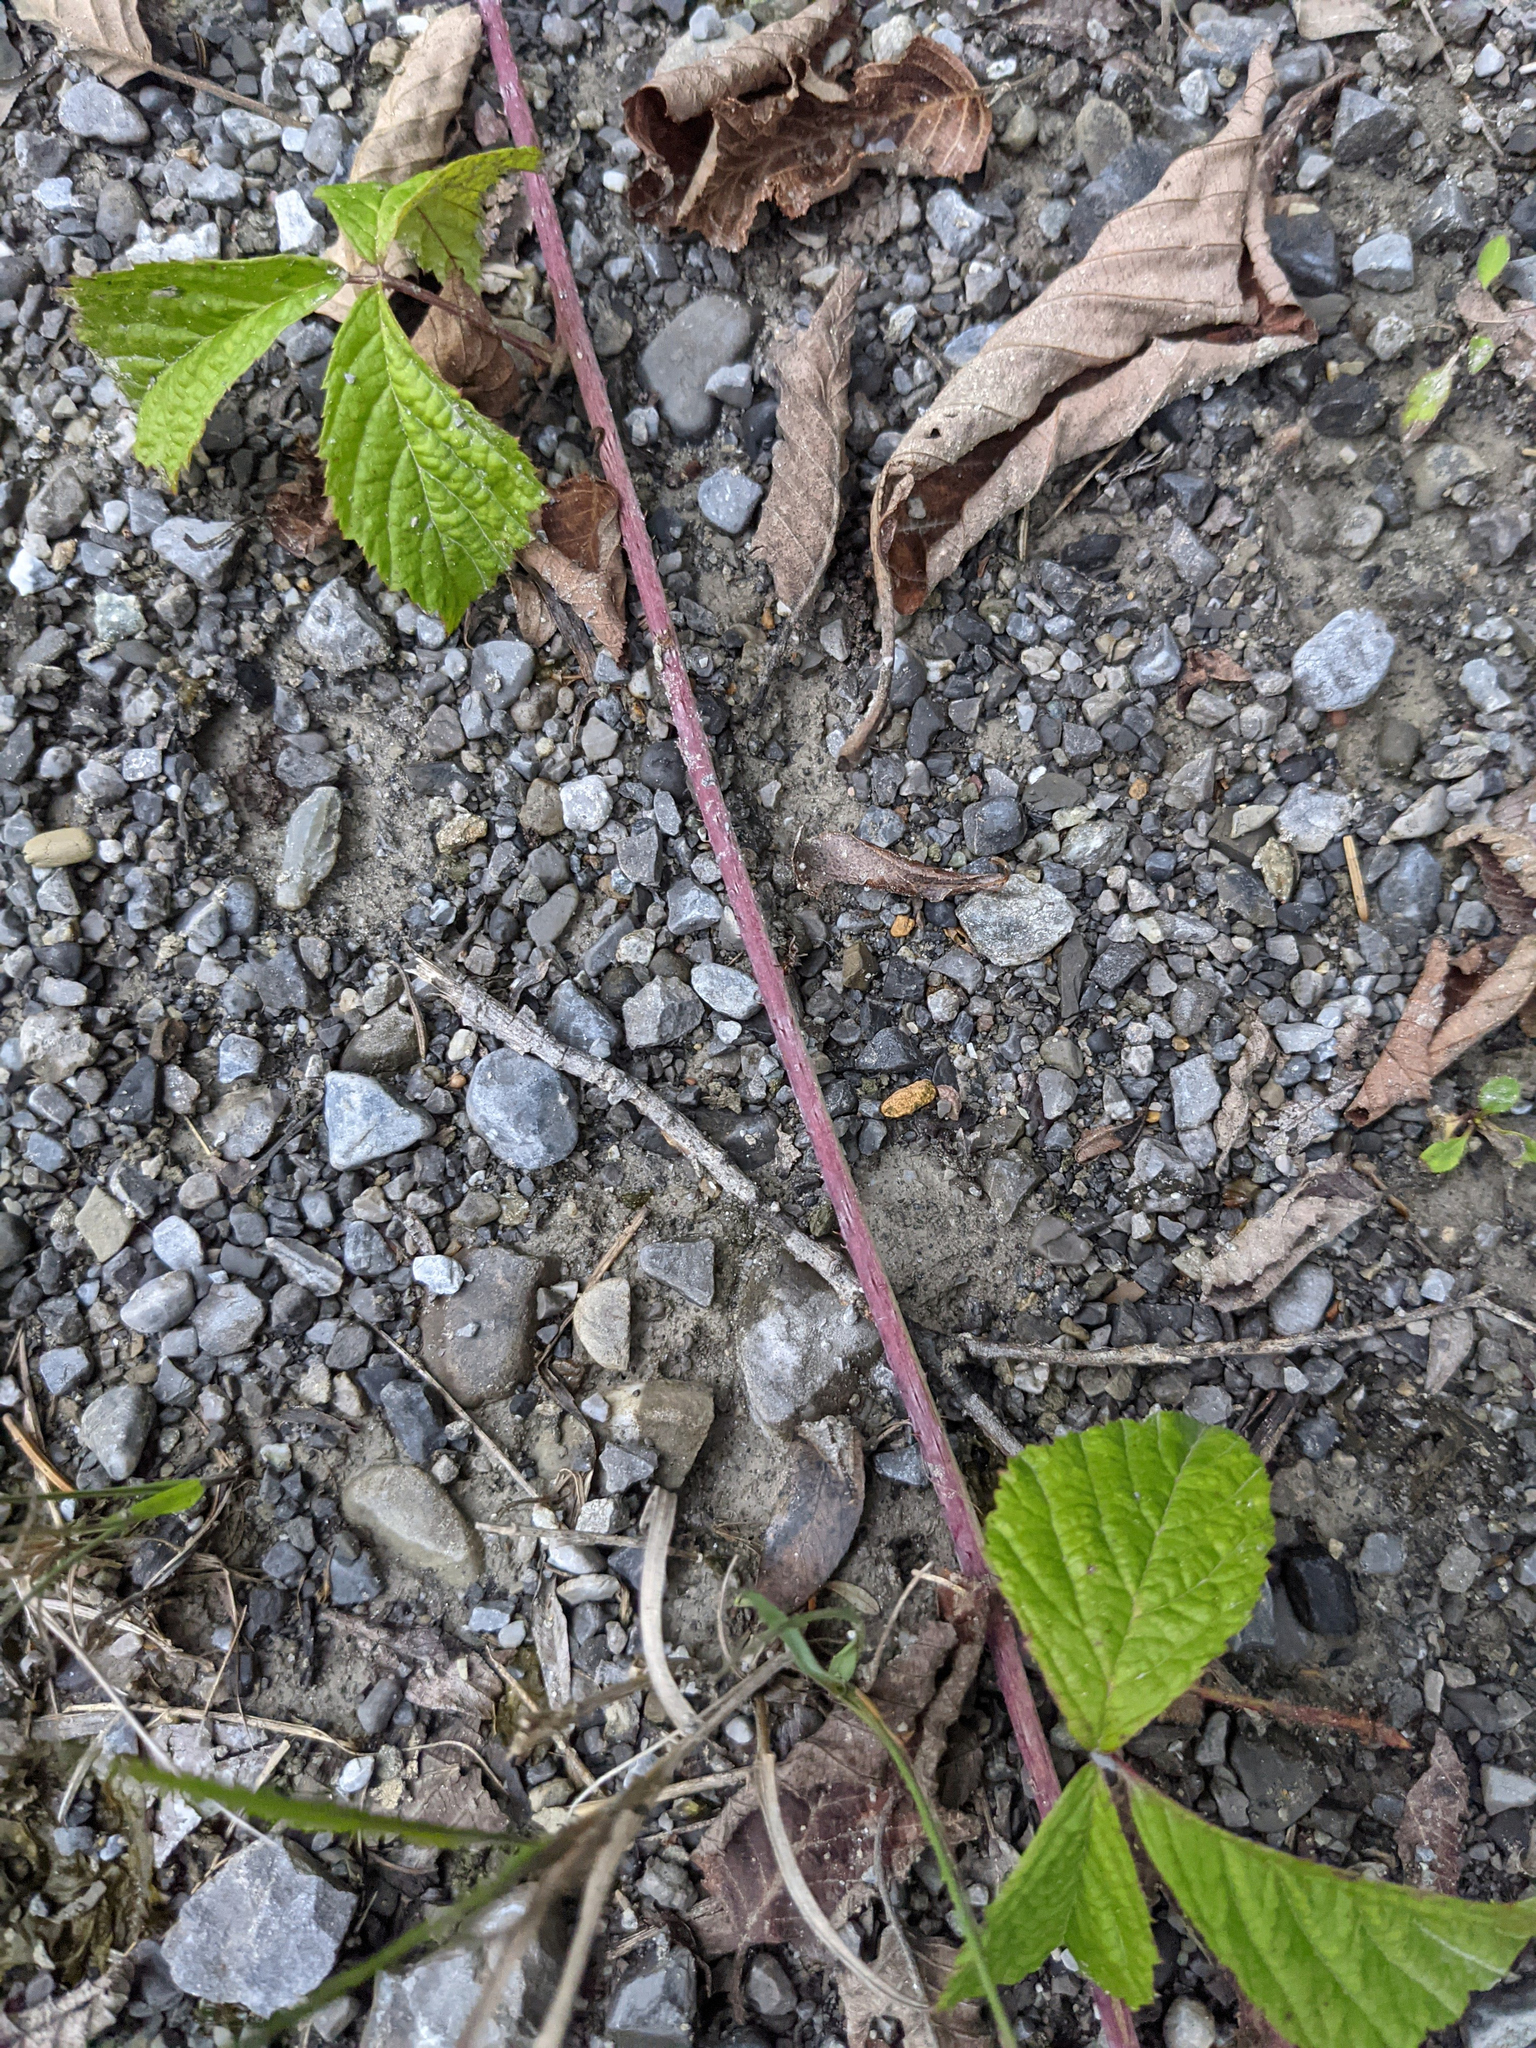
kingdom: Plantae
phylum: Tracheophyta
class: Magnoliopsida
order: Rosales
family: Rosaceae
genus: Rubus
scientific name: Rubus caesius
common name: Dewberry
